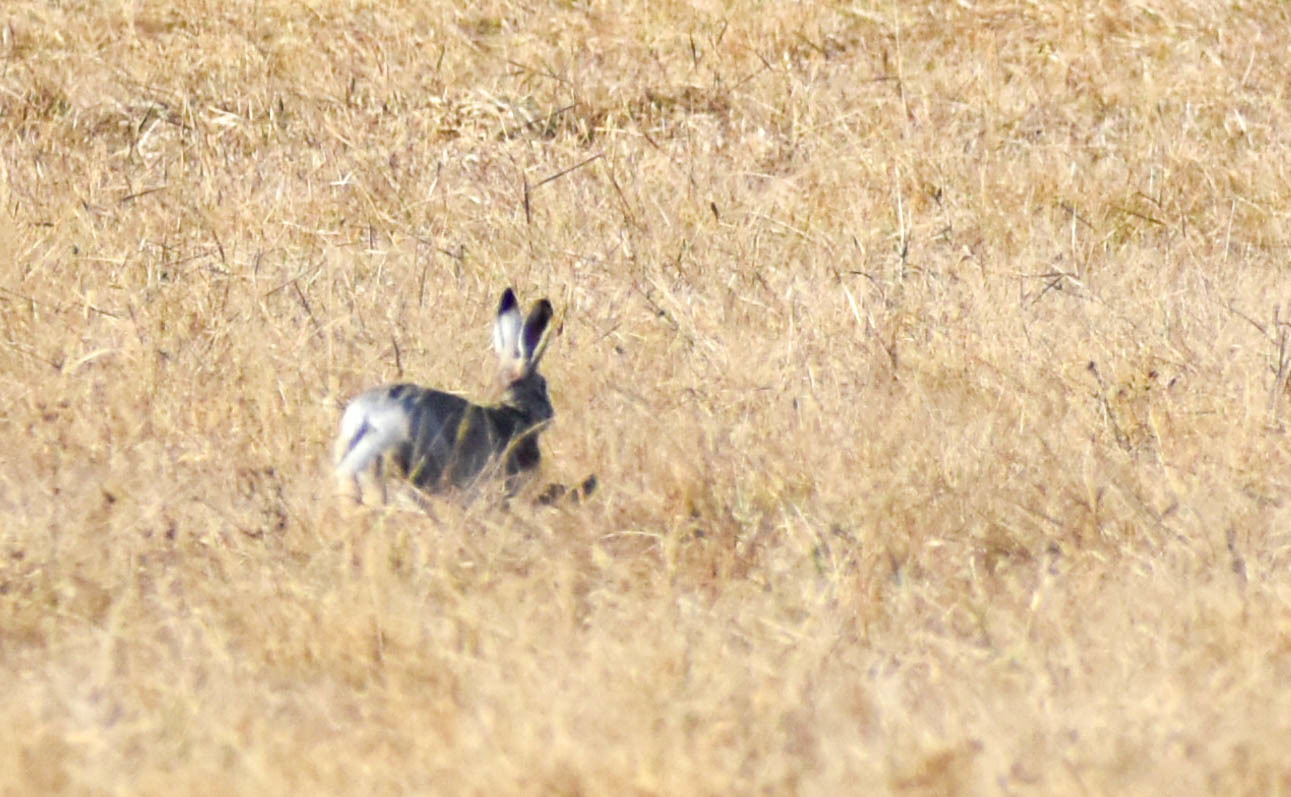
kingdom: Animalia
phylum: Chordata
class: Mammalia
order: Lagomorpha
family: Leporidae
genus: Lepus
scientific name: Lepus europaeus
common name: European hare
